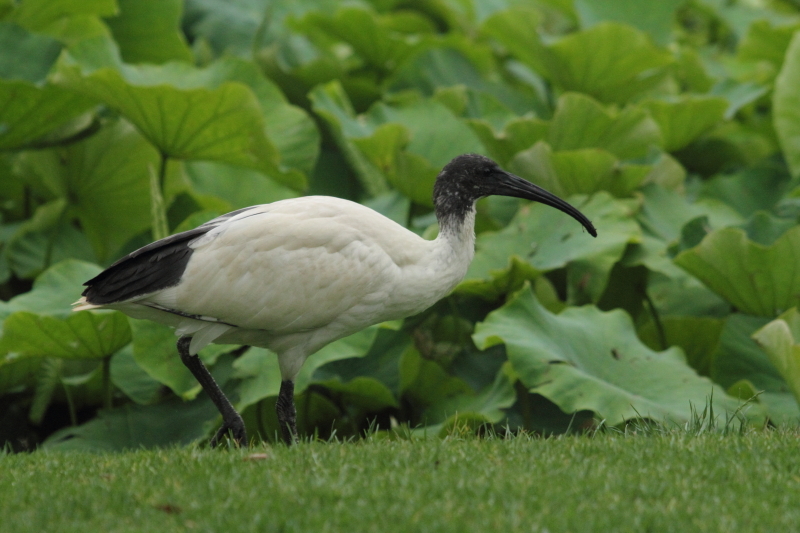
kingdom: Animalia
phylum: Chordata
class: Aves
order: Pelecaniformes
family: Threskiornithidae
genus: Threskiornis
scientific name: Threskiornis molucca
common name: Australian white ibis
